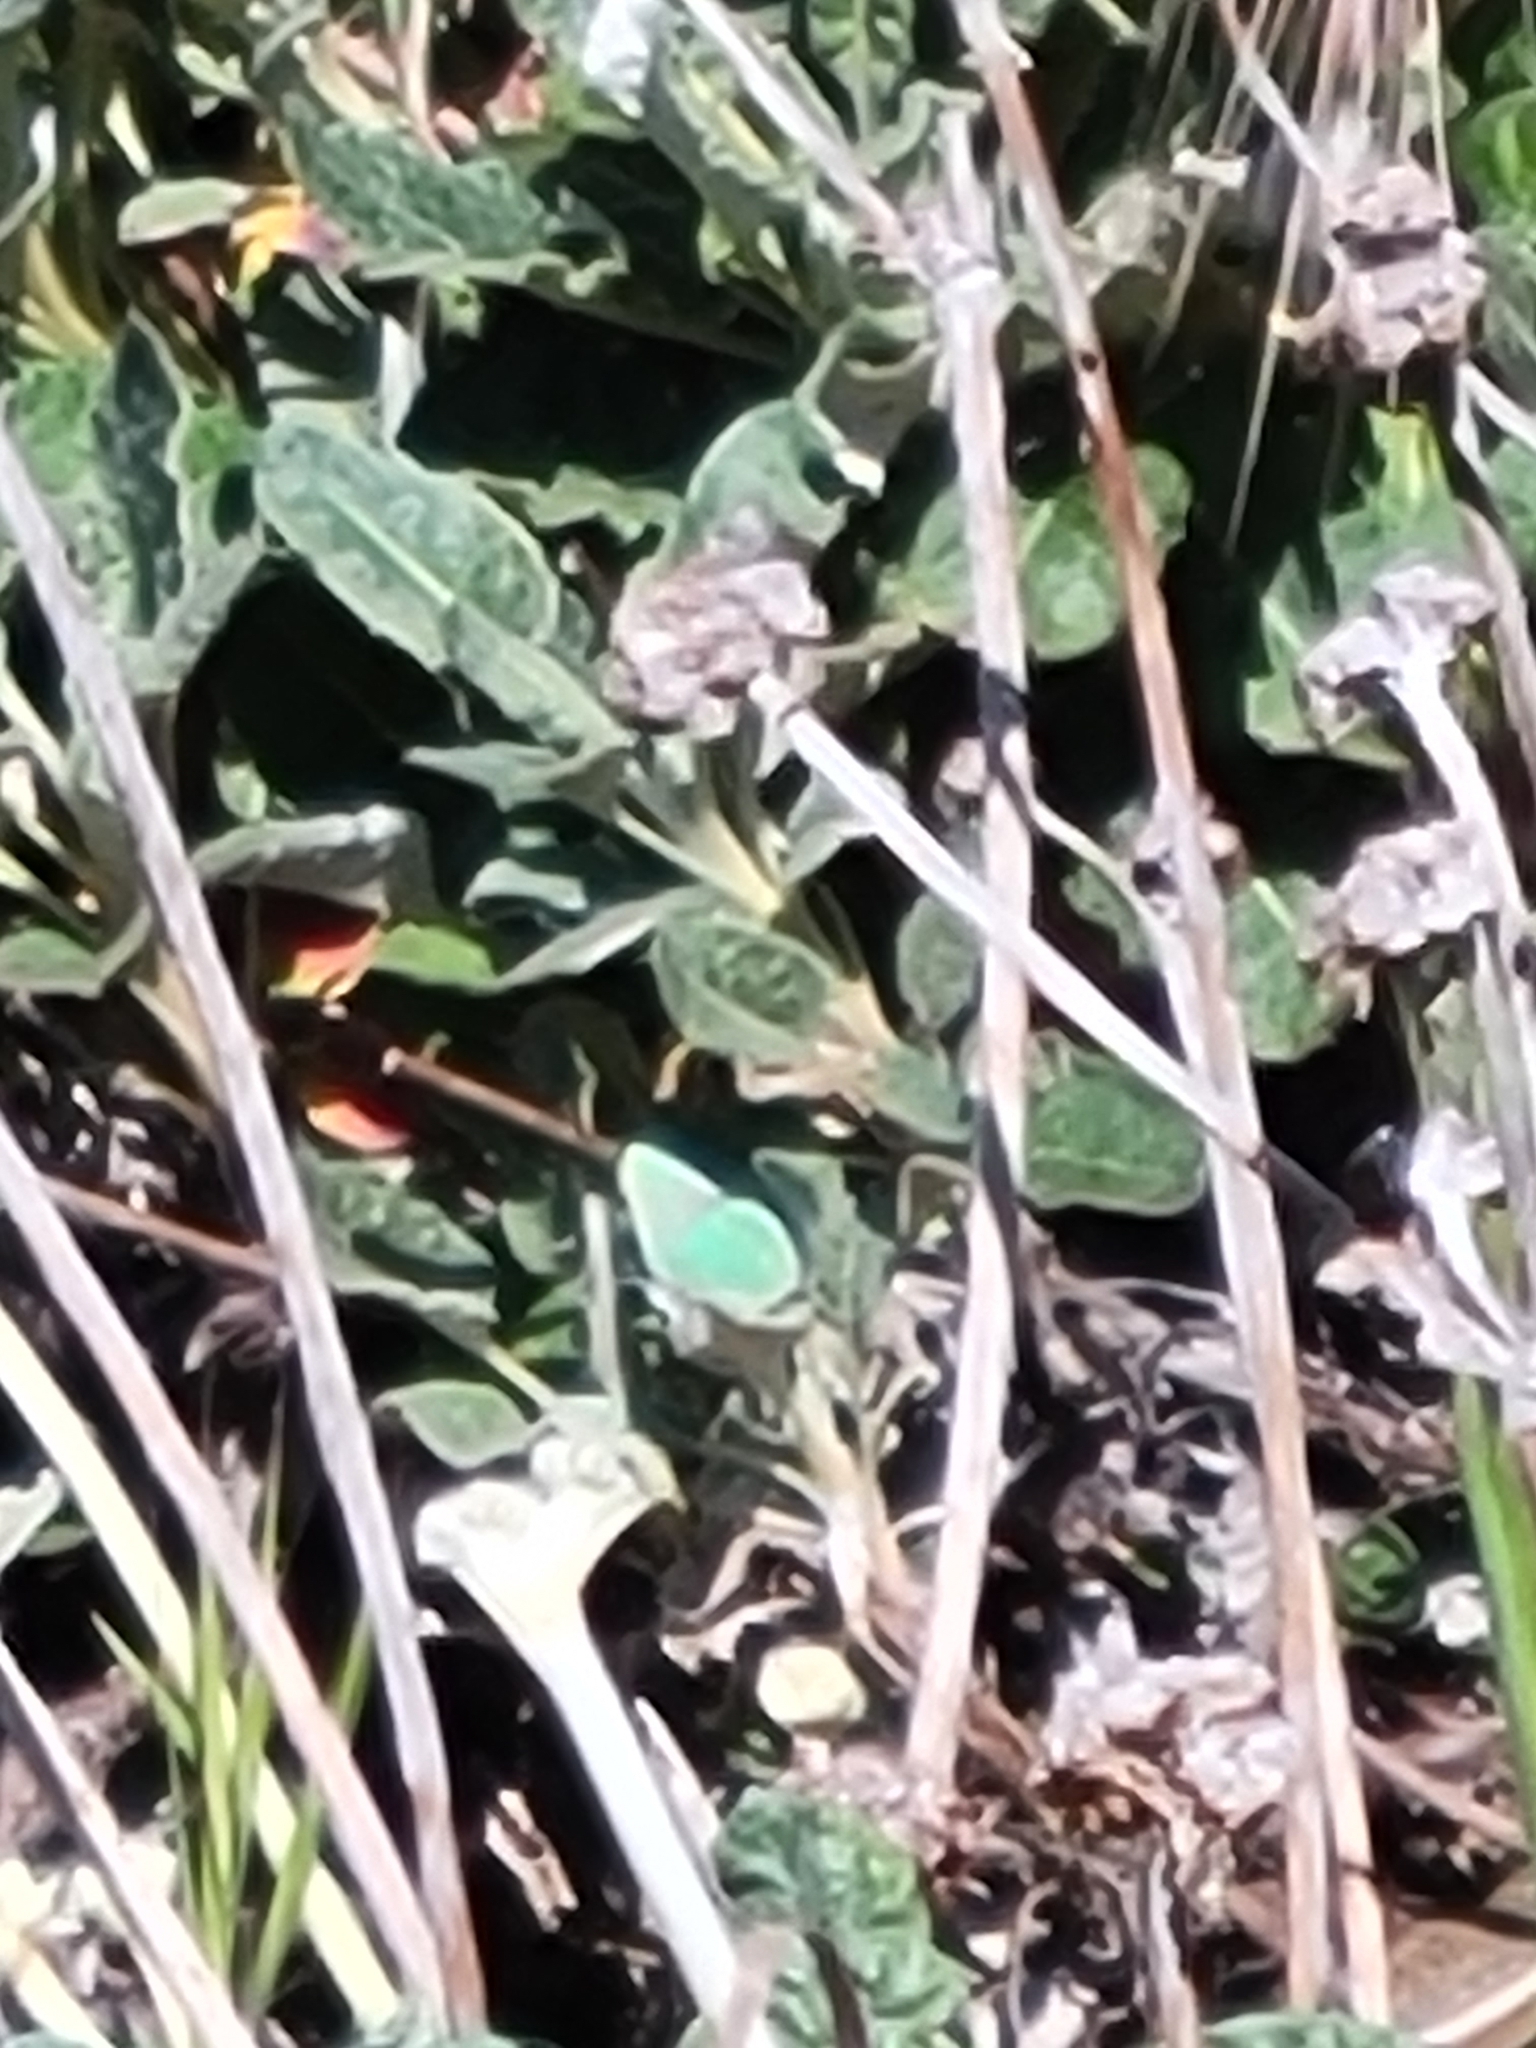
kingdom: Animalia
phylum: Arthropoda
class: Insecta
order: Lepidoptera
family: Lycaenidae
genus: Callophrys
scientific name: Callophrys viridis
